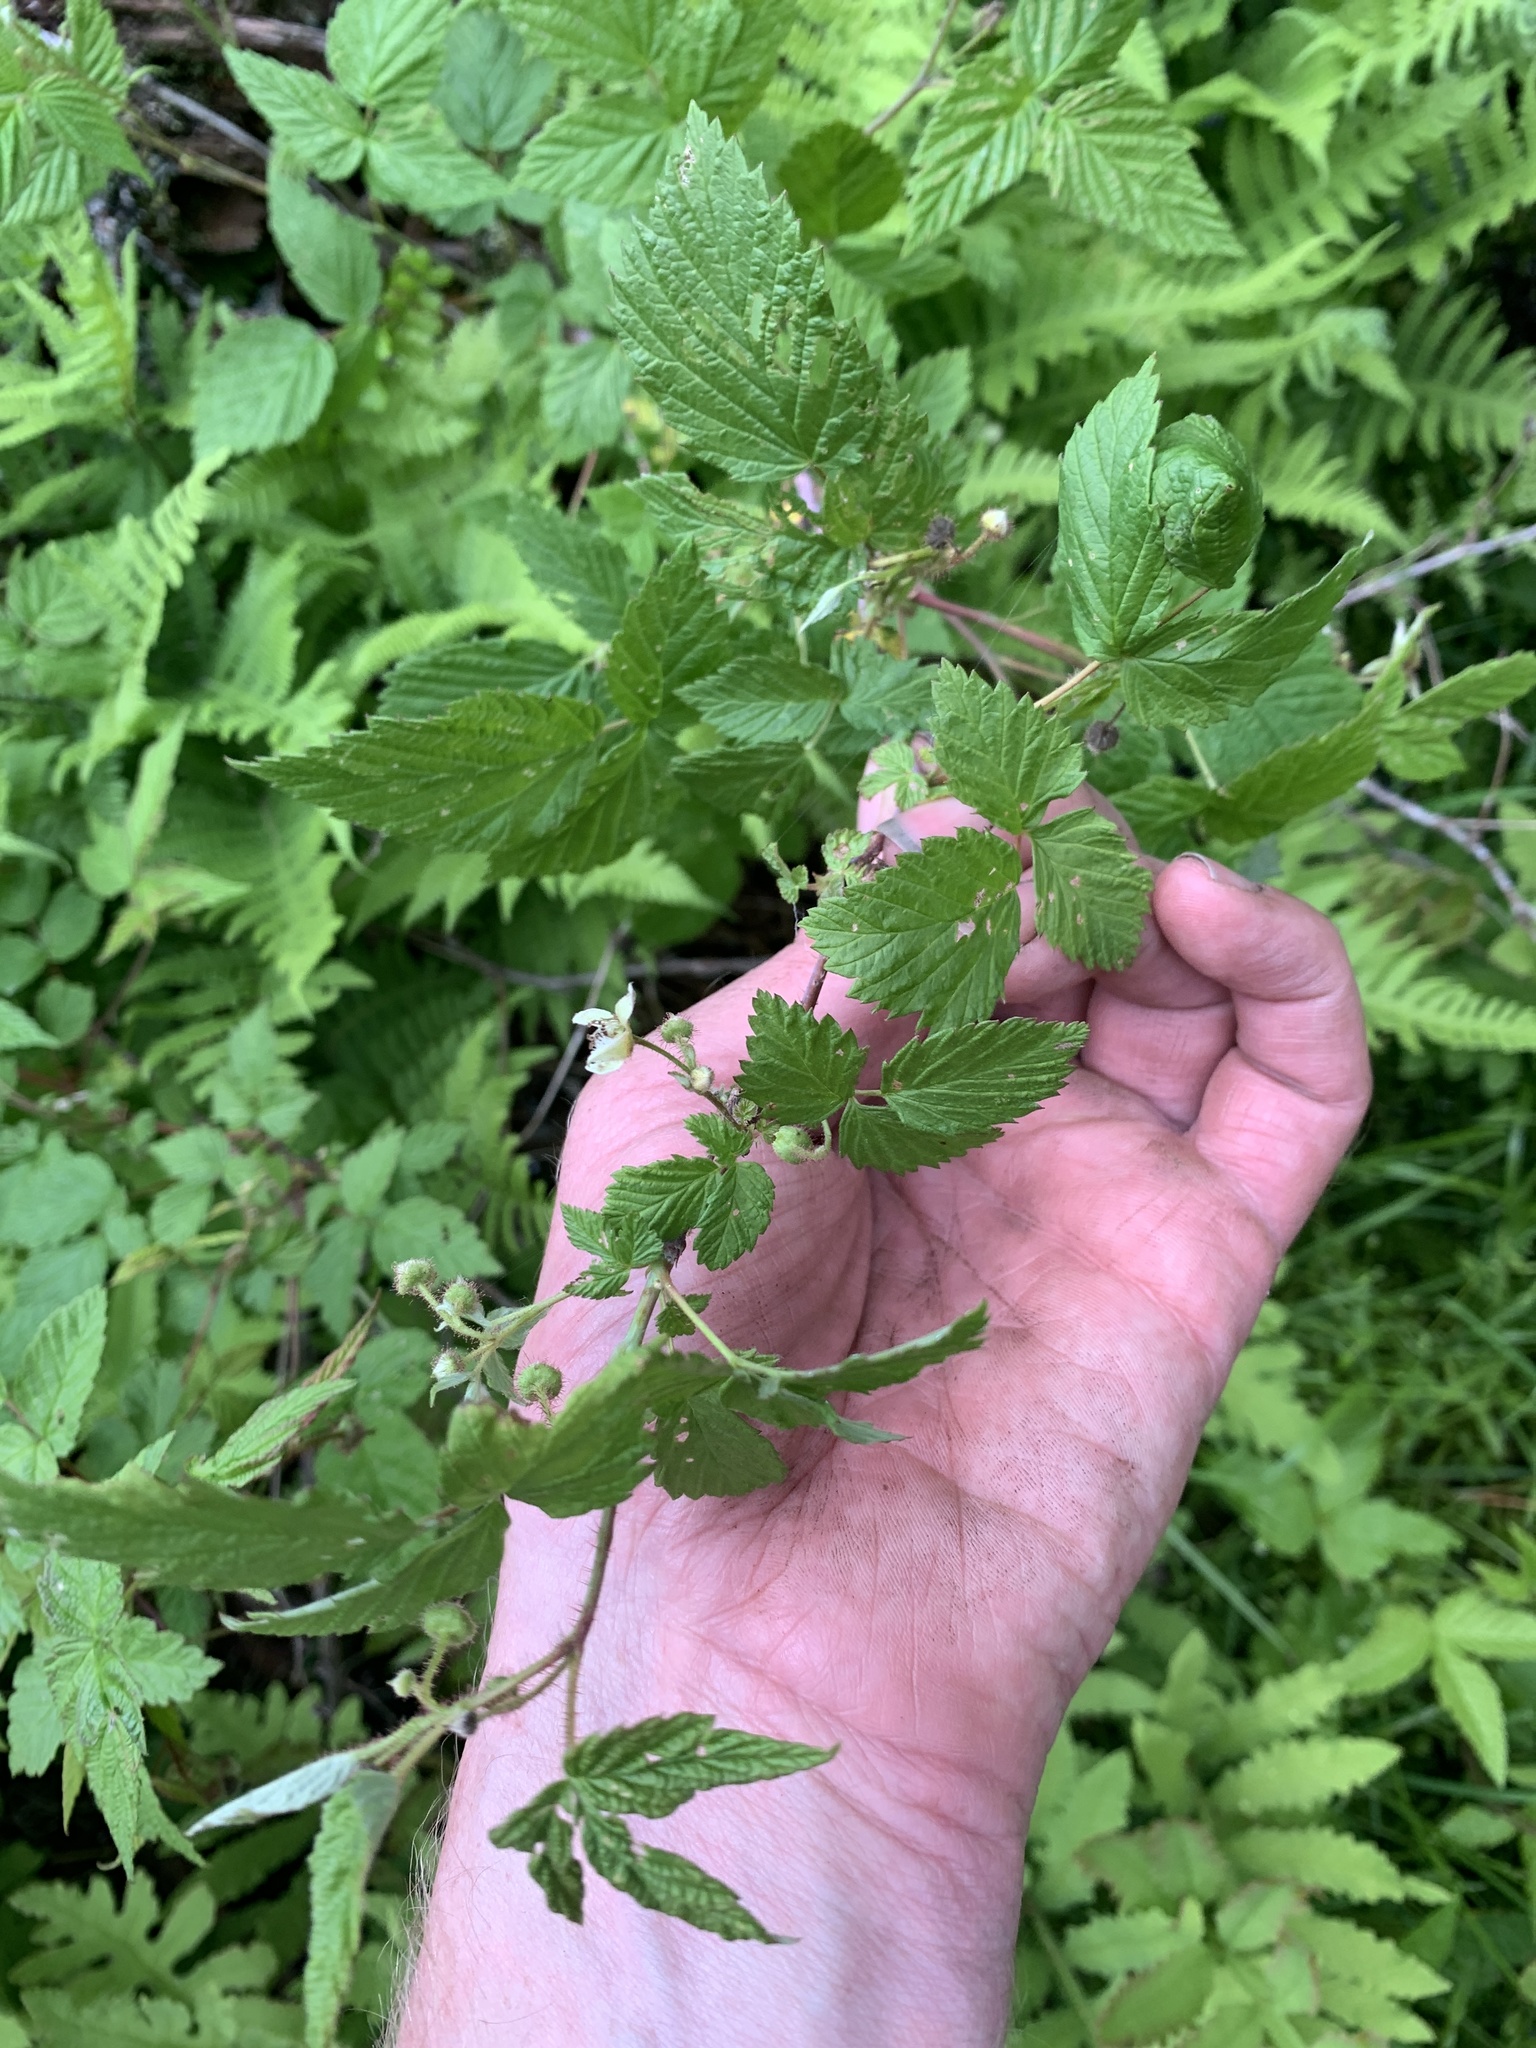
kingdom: Plantae
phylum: Tracheophyta
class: Magnoliopsida
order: Rosales
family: Rosaceae
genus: Rubus
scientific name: Rubus idaeus
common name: Raspberry
